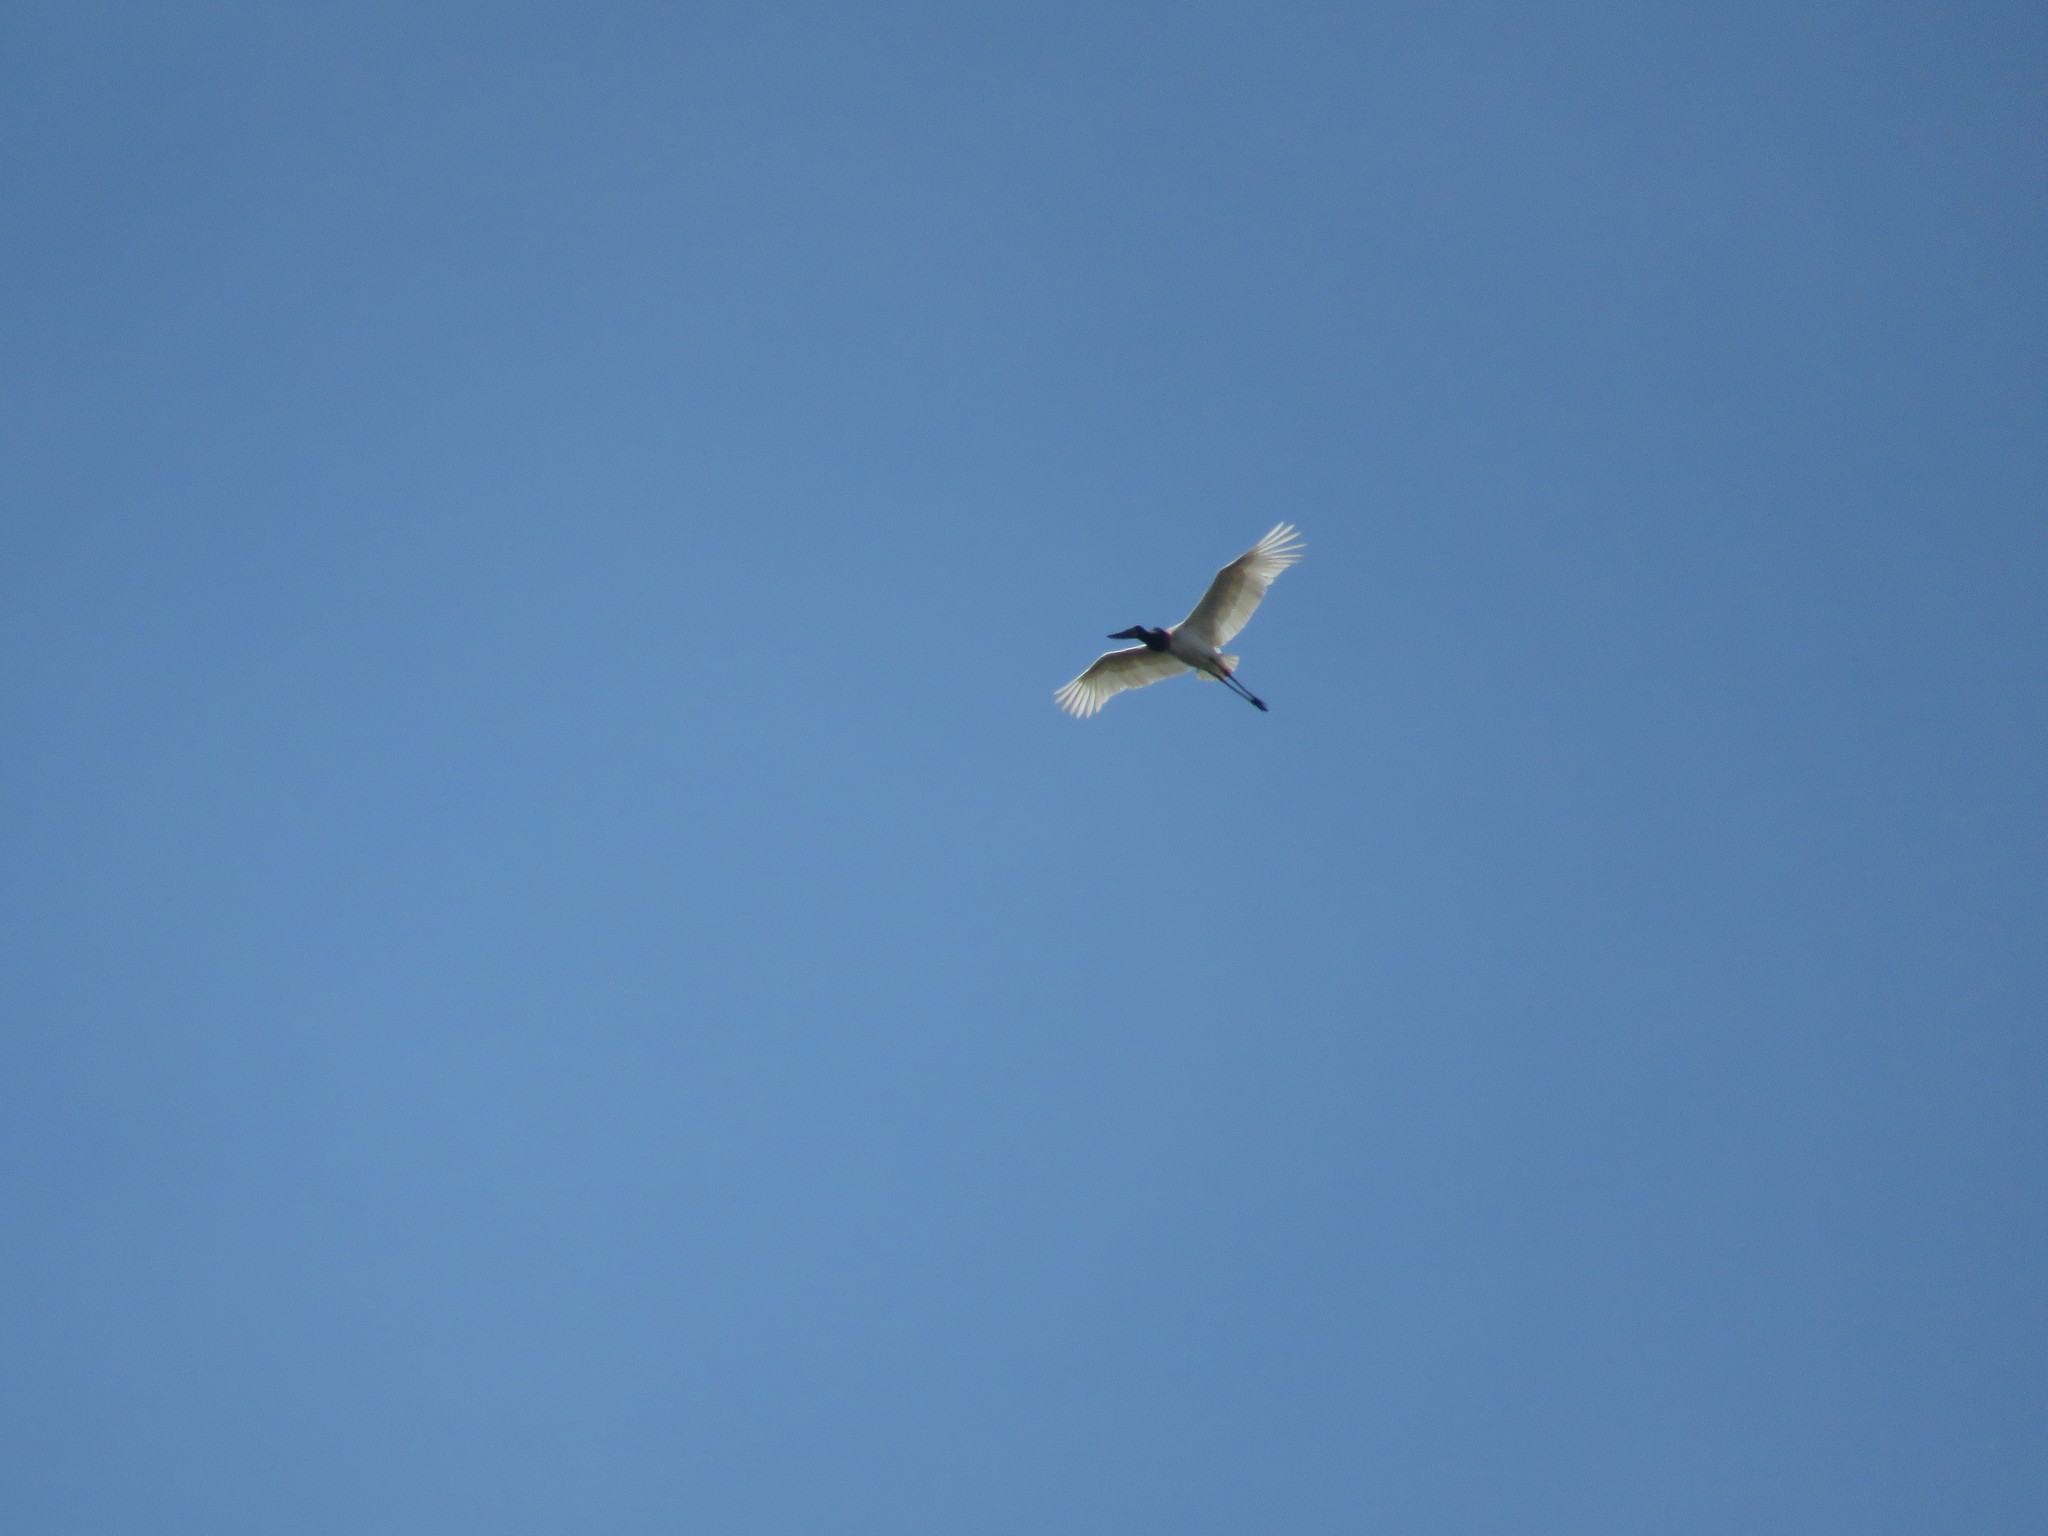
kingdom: Animalia
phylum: Chordata
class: Aves
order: Ciconiiformes
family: Ciconiidae
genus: Jabiru
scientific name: Jabiru mycteria
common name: Jabiru
